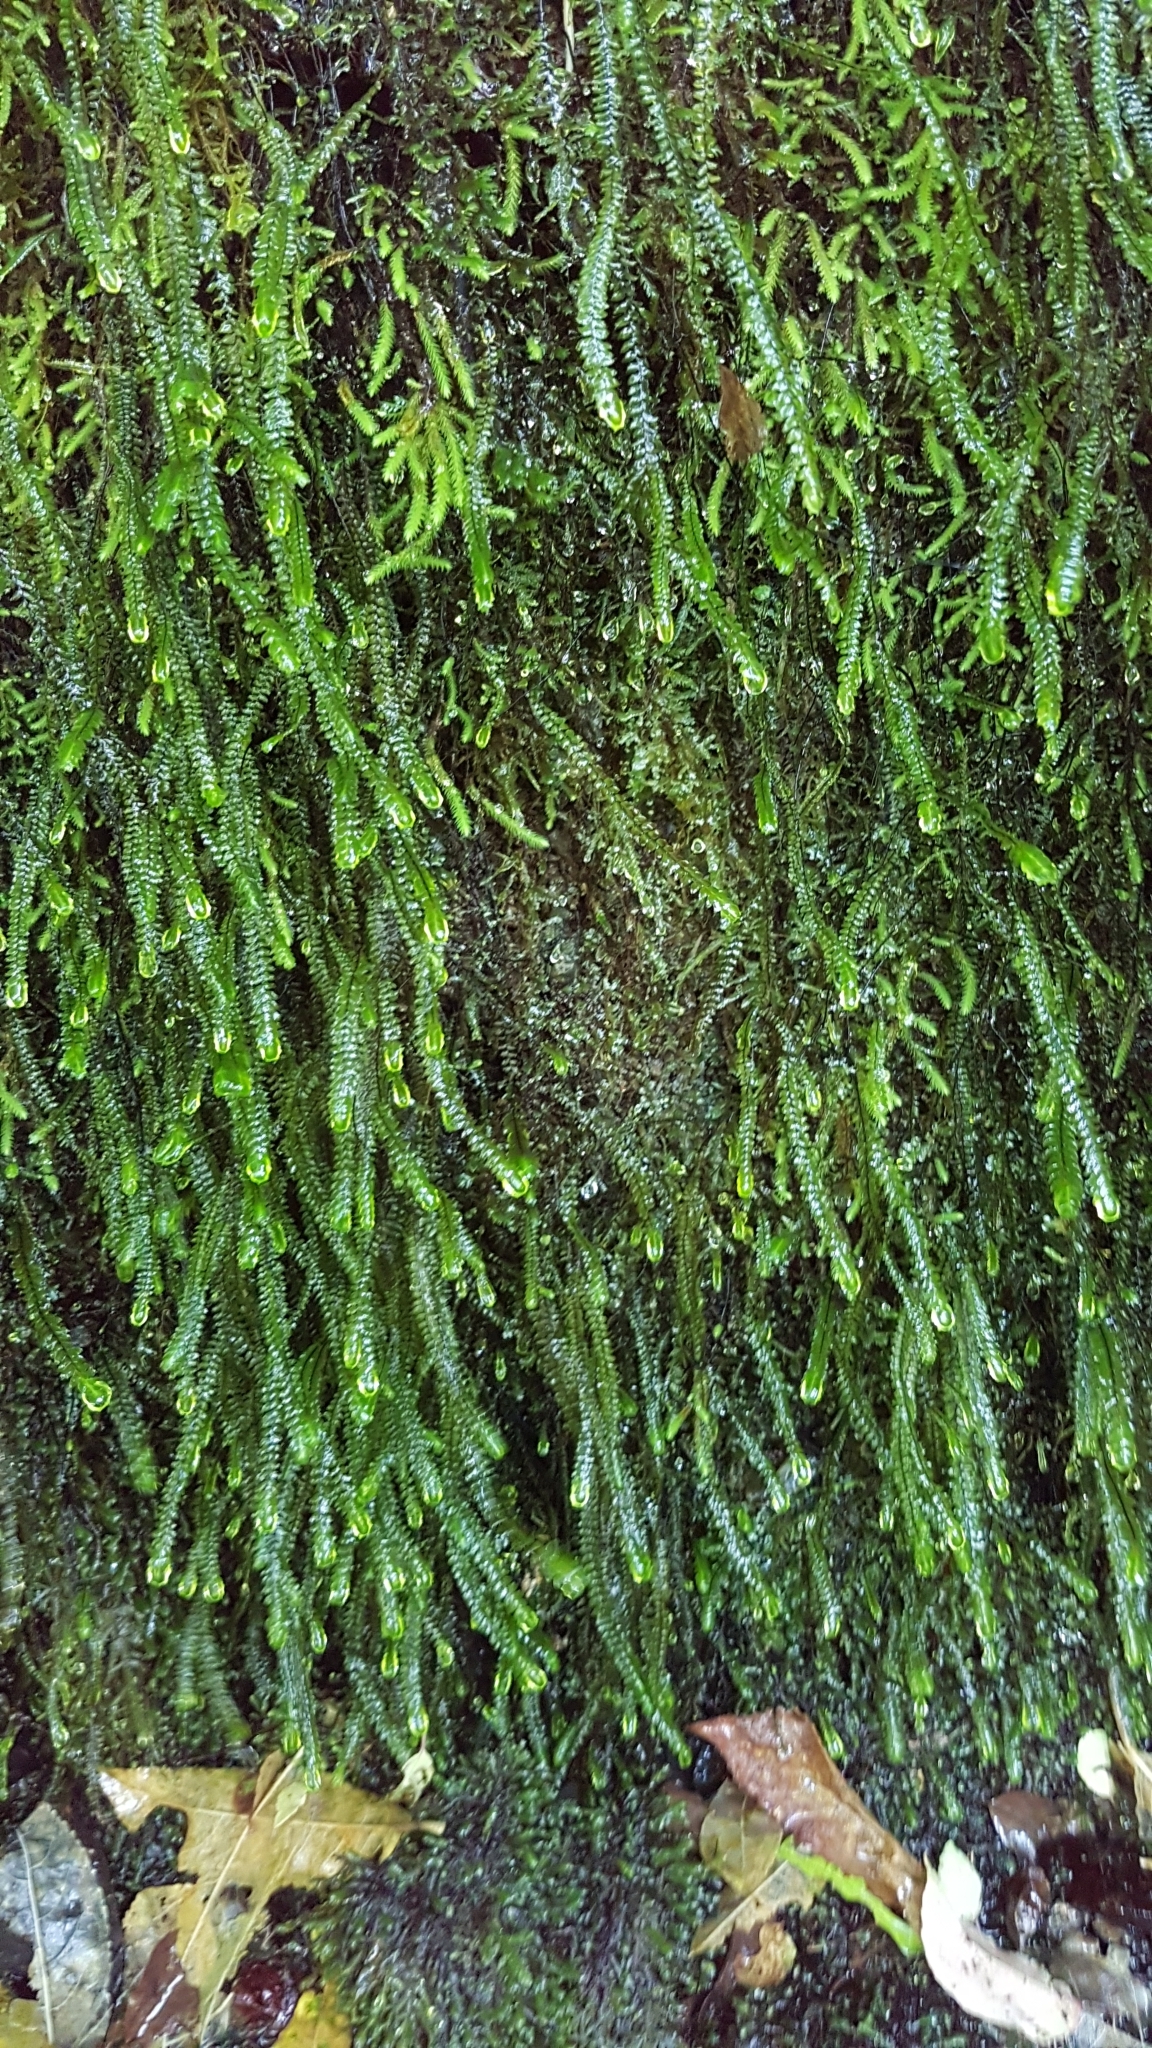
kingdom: Plantae
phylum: Bryophyta
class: Bryopsida
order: Hypopterygiales
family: Hypopterygiaceae
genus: Cyathophorum
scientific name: Cyathophorum bulbosum
